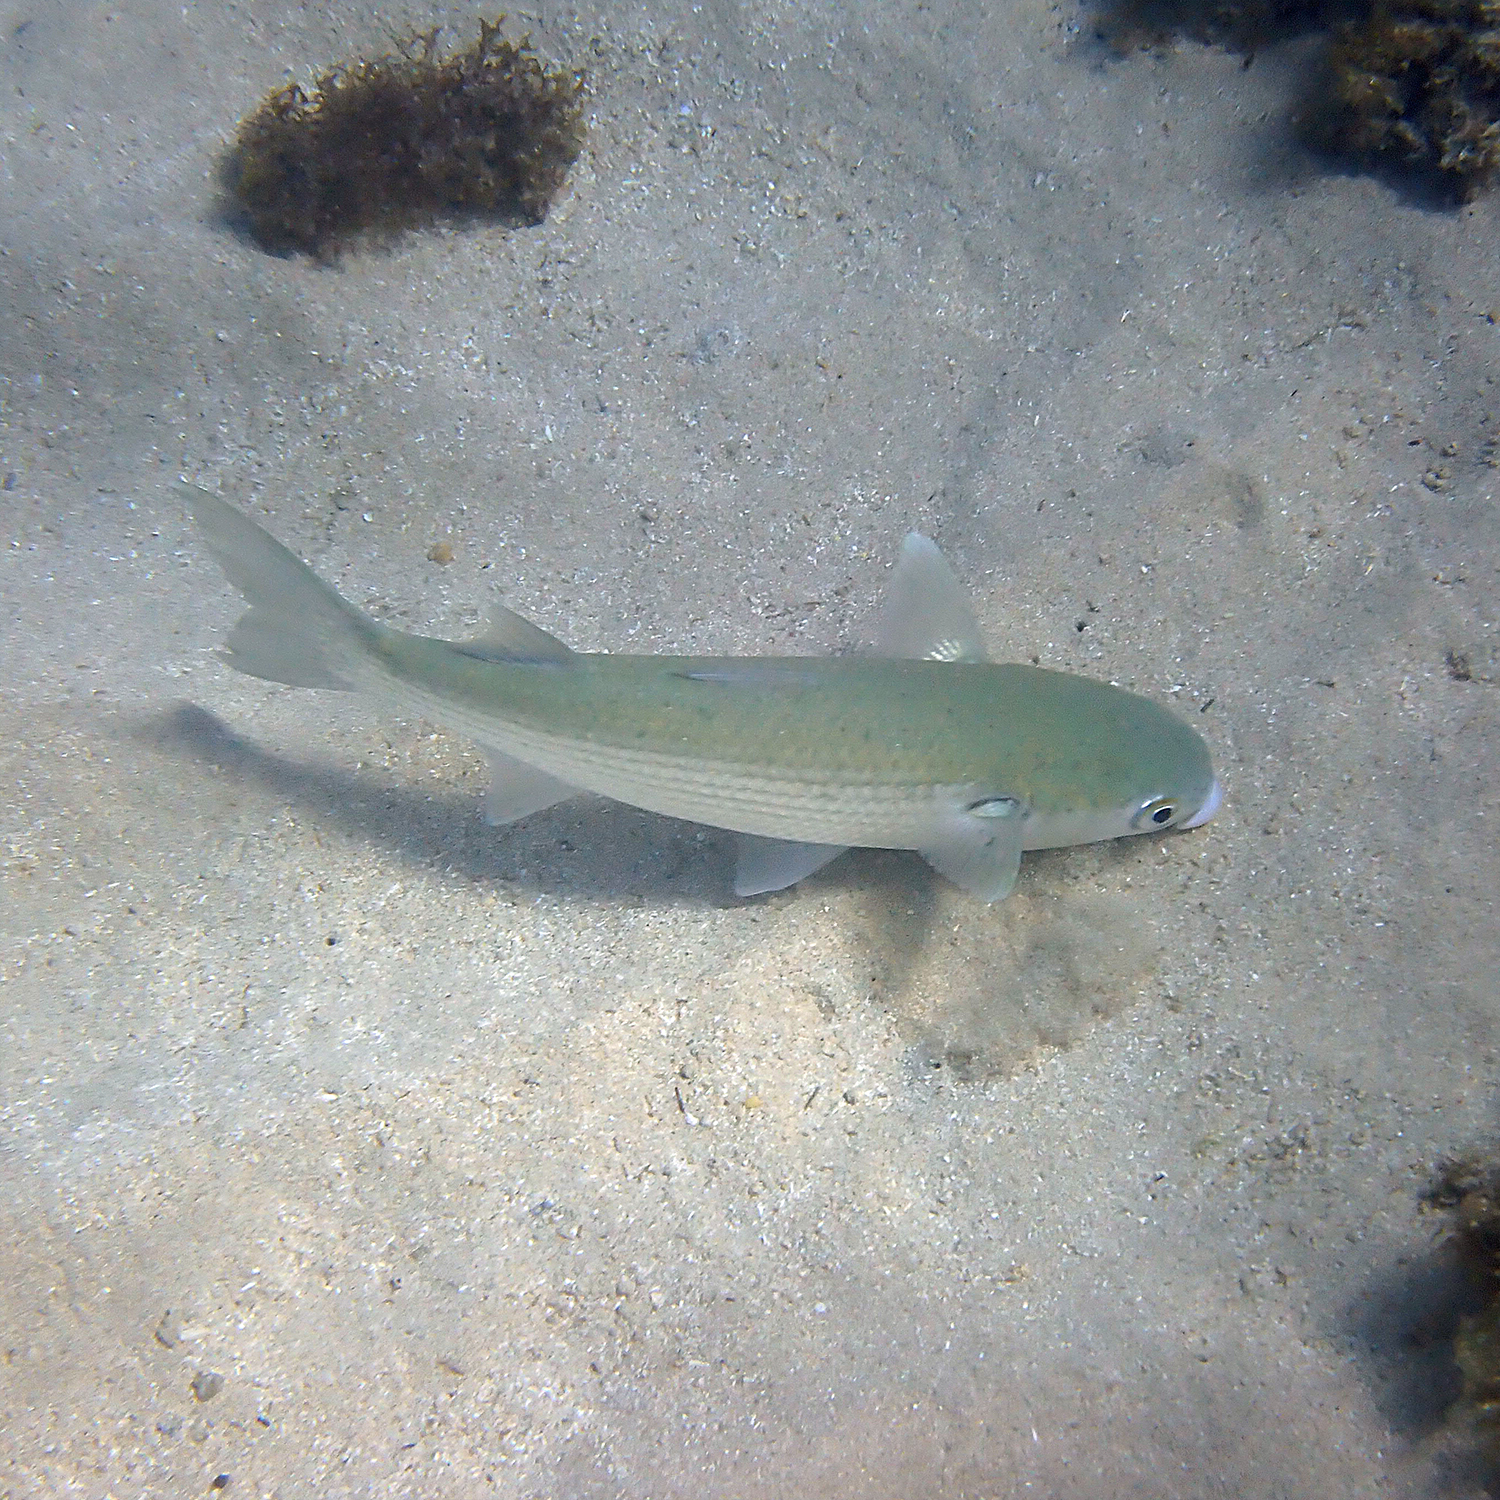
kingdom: Animalia
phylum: Chordata
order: Mugiliformes
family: Mugilidae
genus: Mugil
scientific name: Mugil cephalus
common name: Grey mullet
